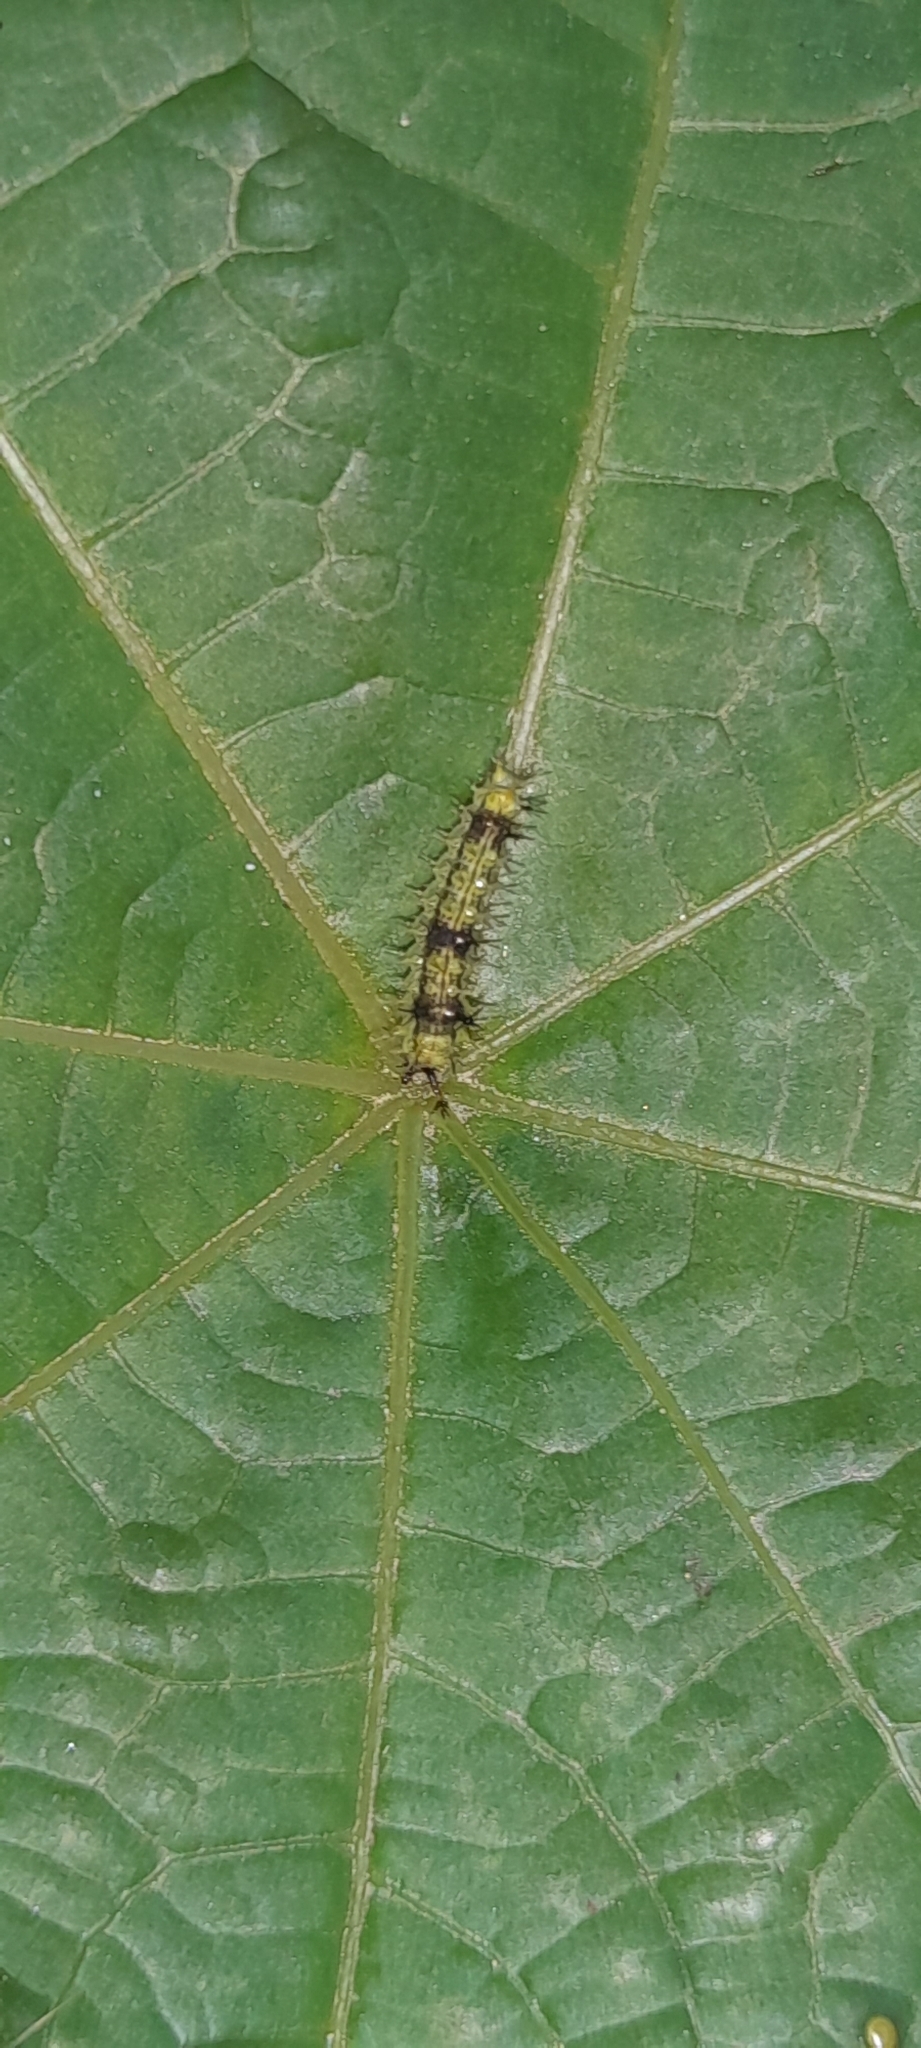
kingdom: Animalia
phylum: Arthropoda
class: Insecta
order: Lepidoptera
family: Nymphalidae
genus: Ariadne
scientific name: Ariadne merione
